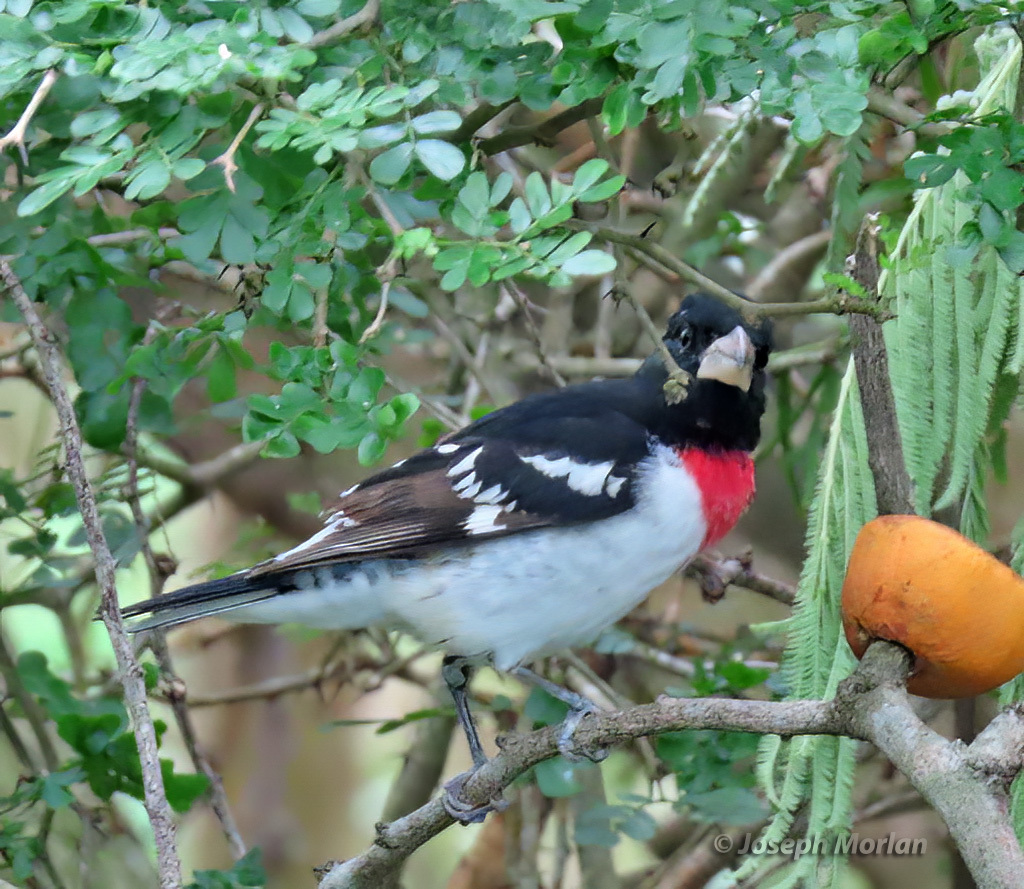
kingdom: Animalia
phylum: Chordata
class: Aves
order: Passeriformes
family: Cardinalidae
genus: Pheucticus
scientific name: Pheucticus ludovicianus
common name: Rose-breasted grosbeak
